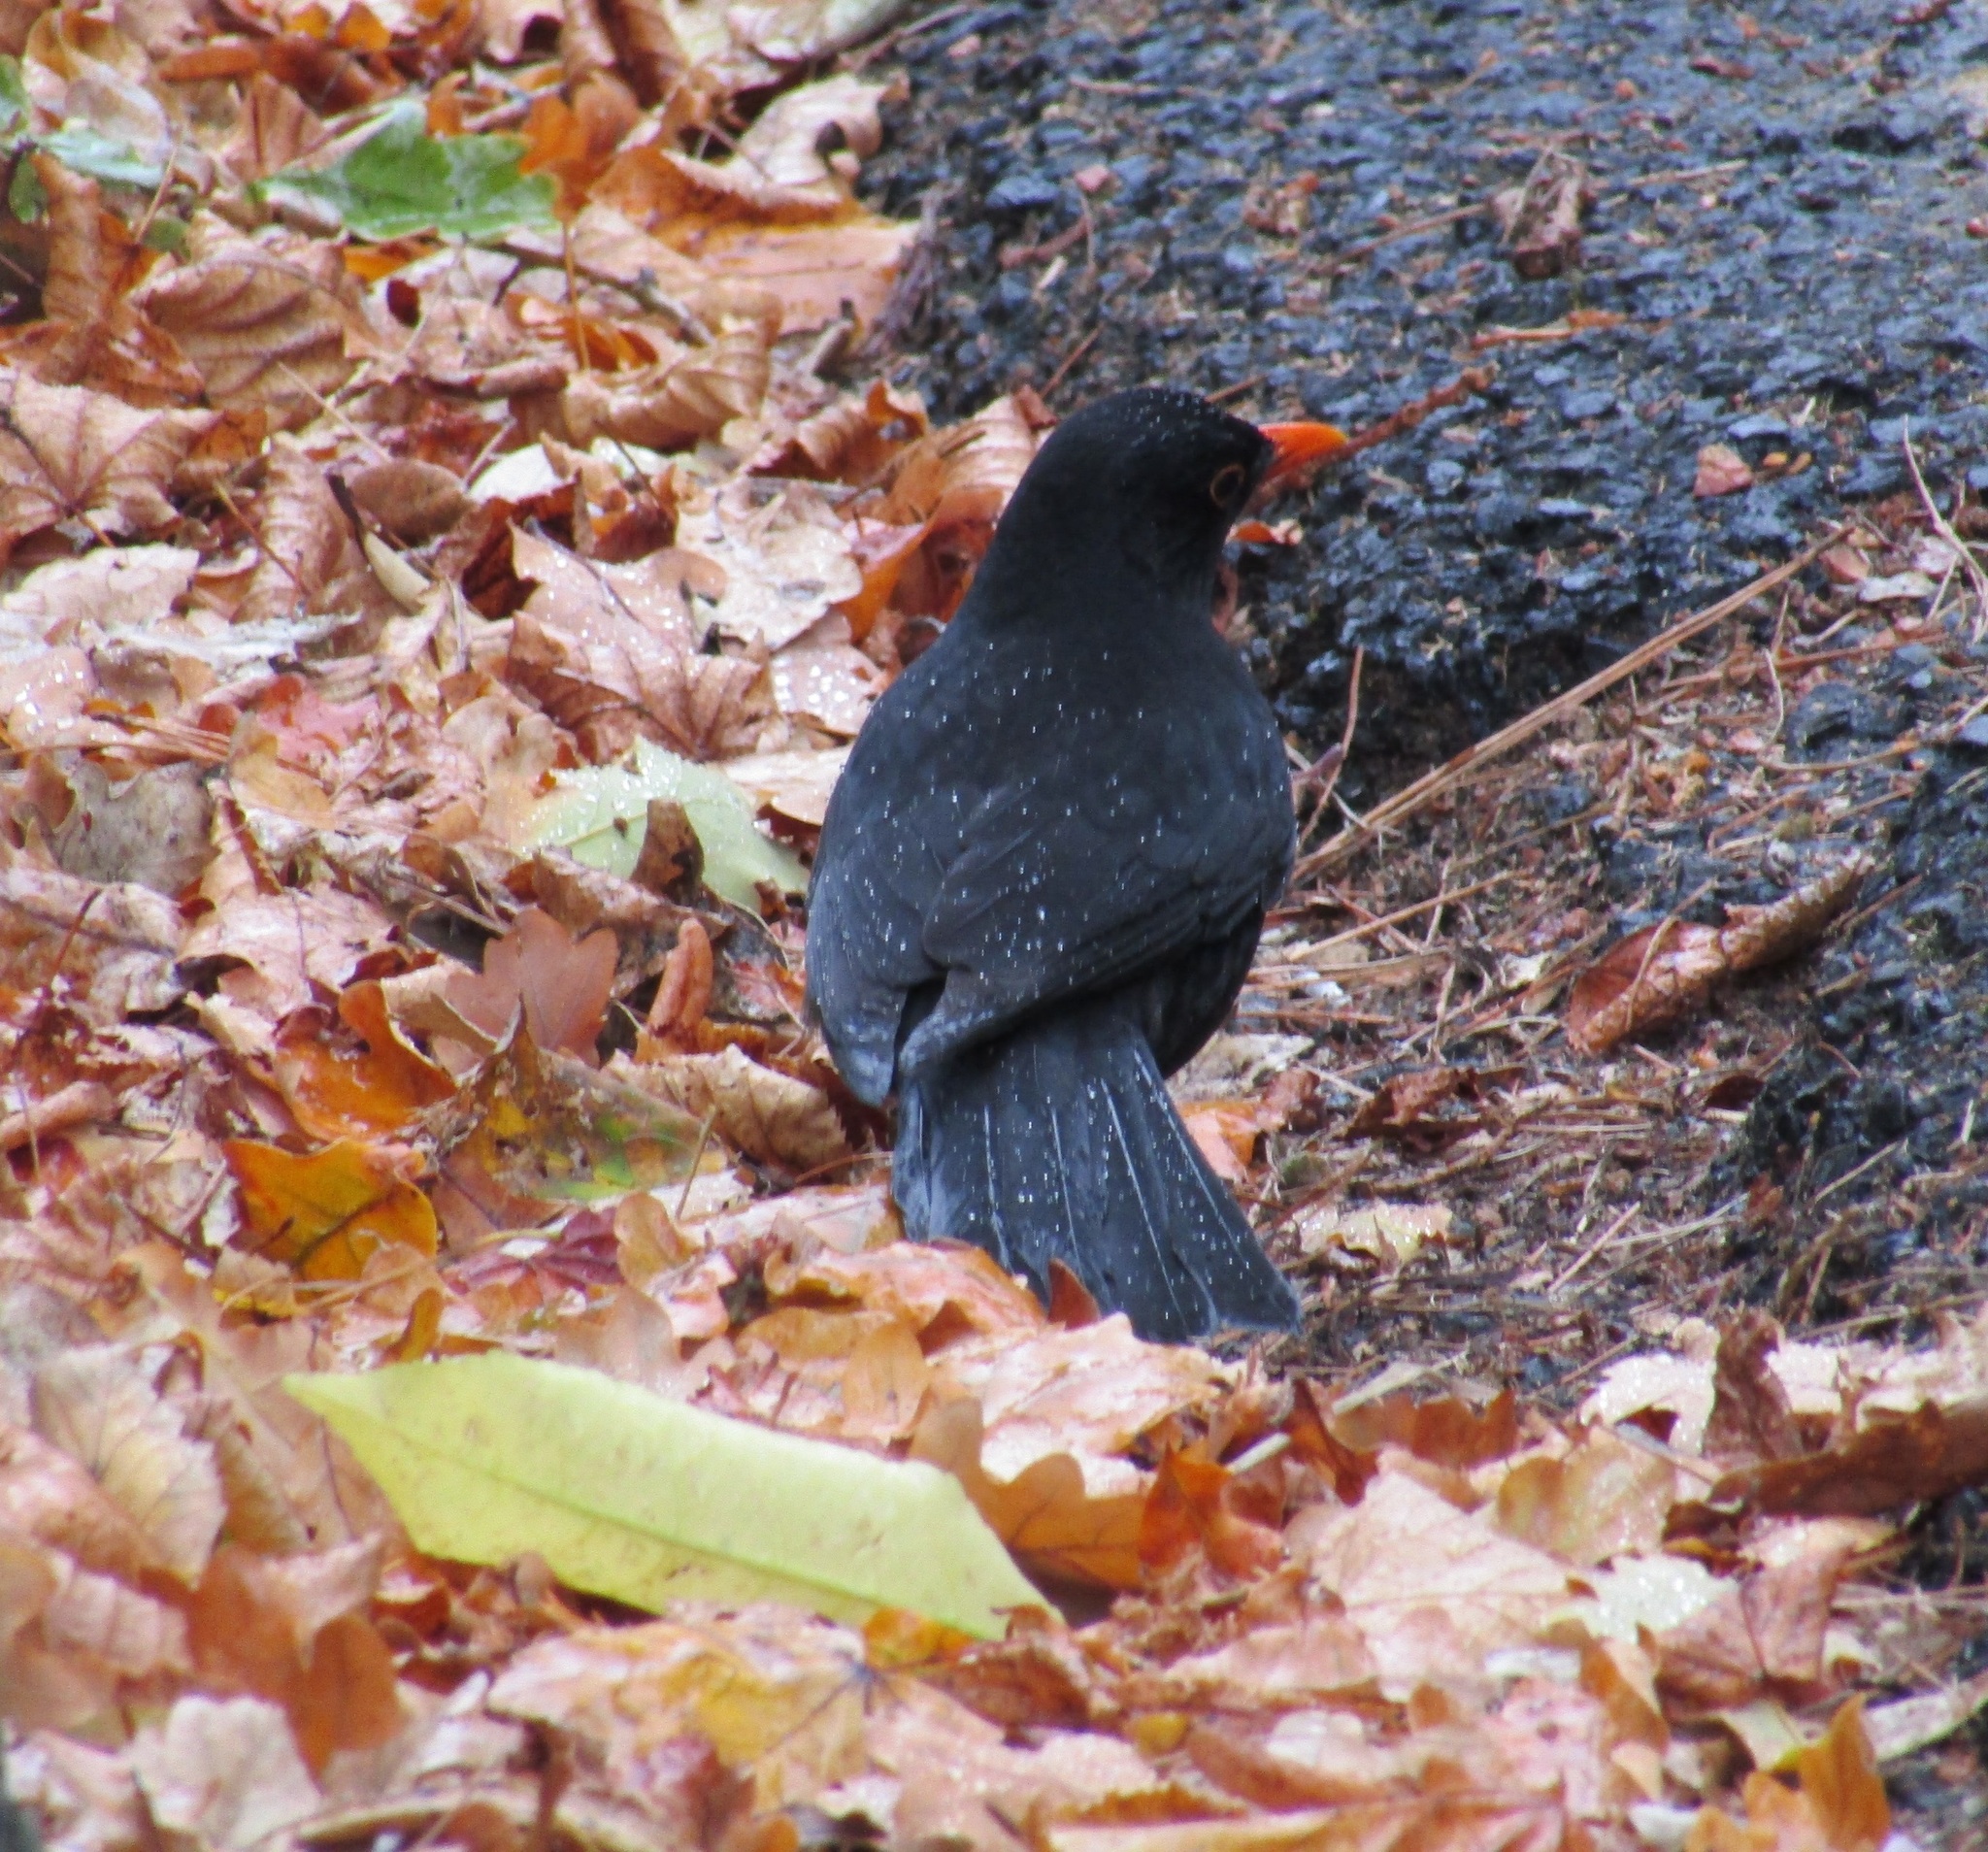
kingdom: Animalia
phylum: Chordata
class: Aves
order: Passeriformes
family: Turdidae
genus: Turdus
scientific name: Turdus merula
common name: Common blackbird
